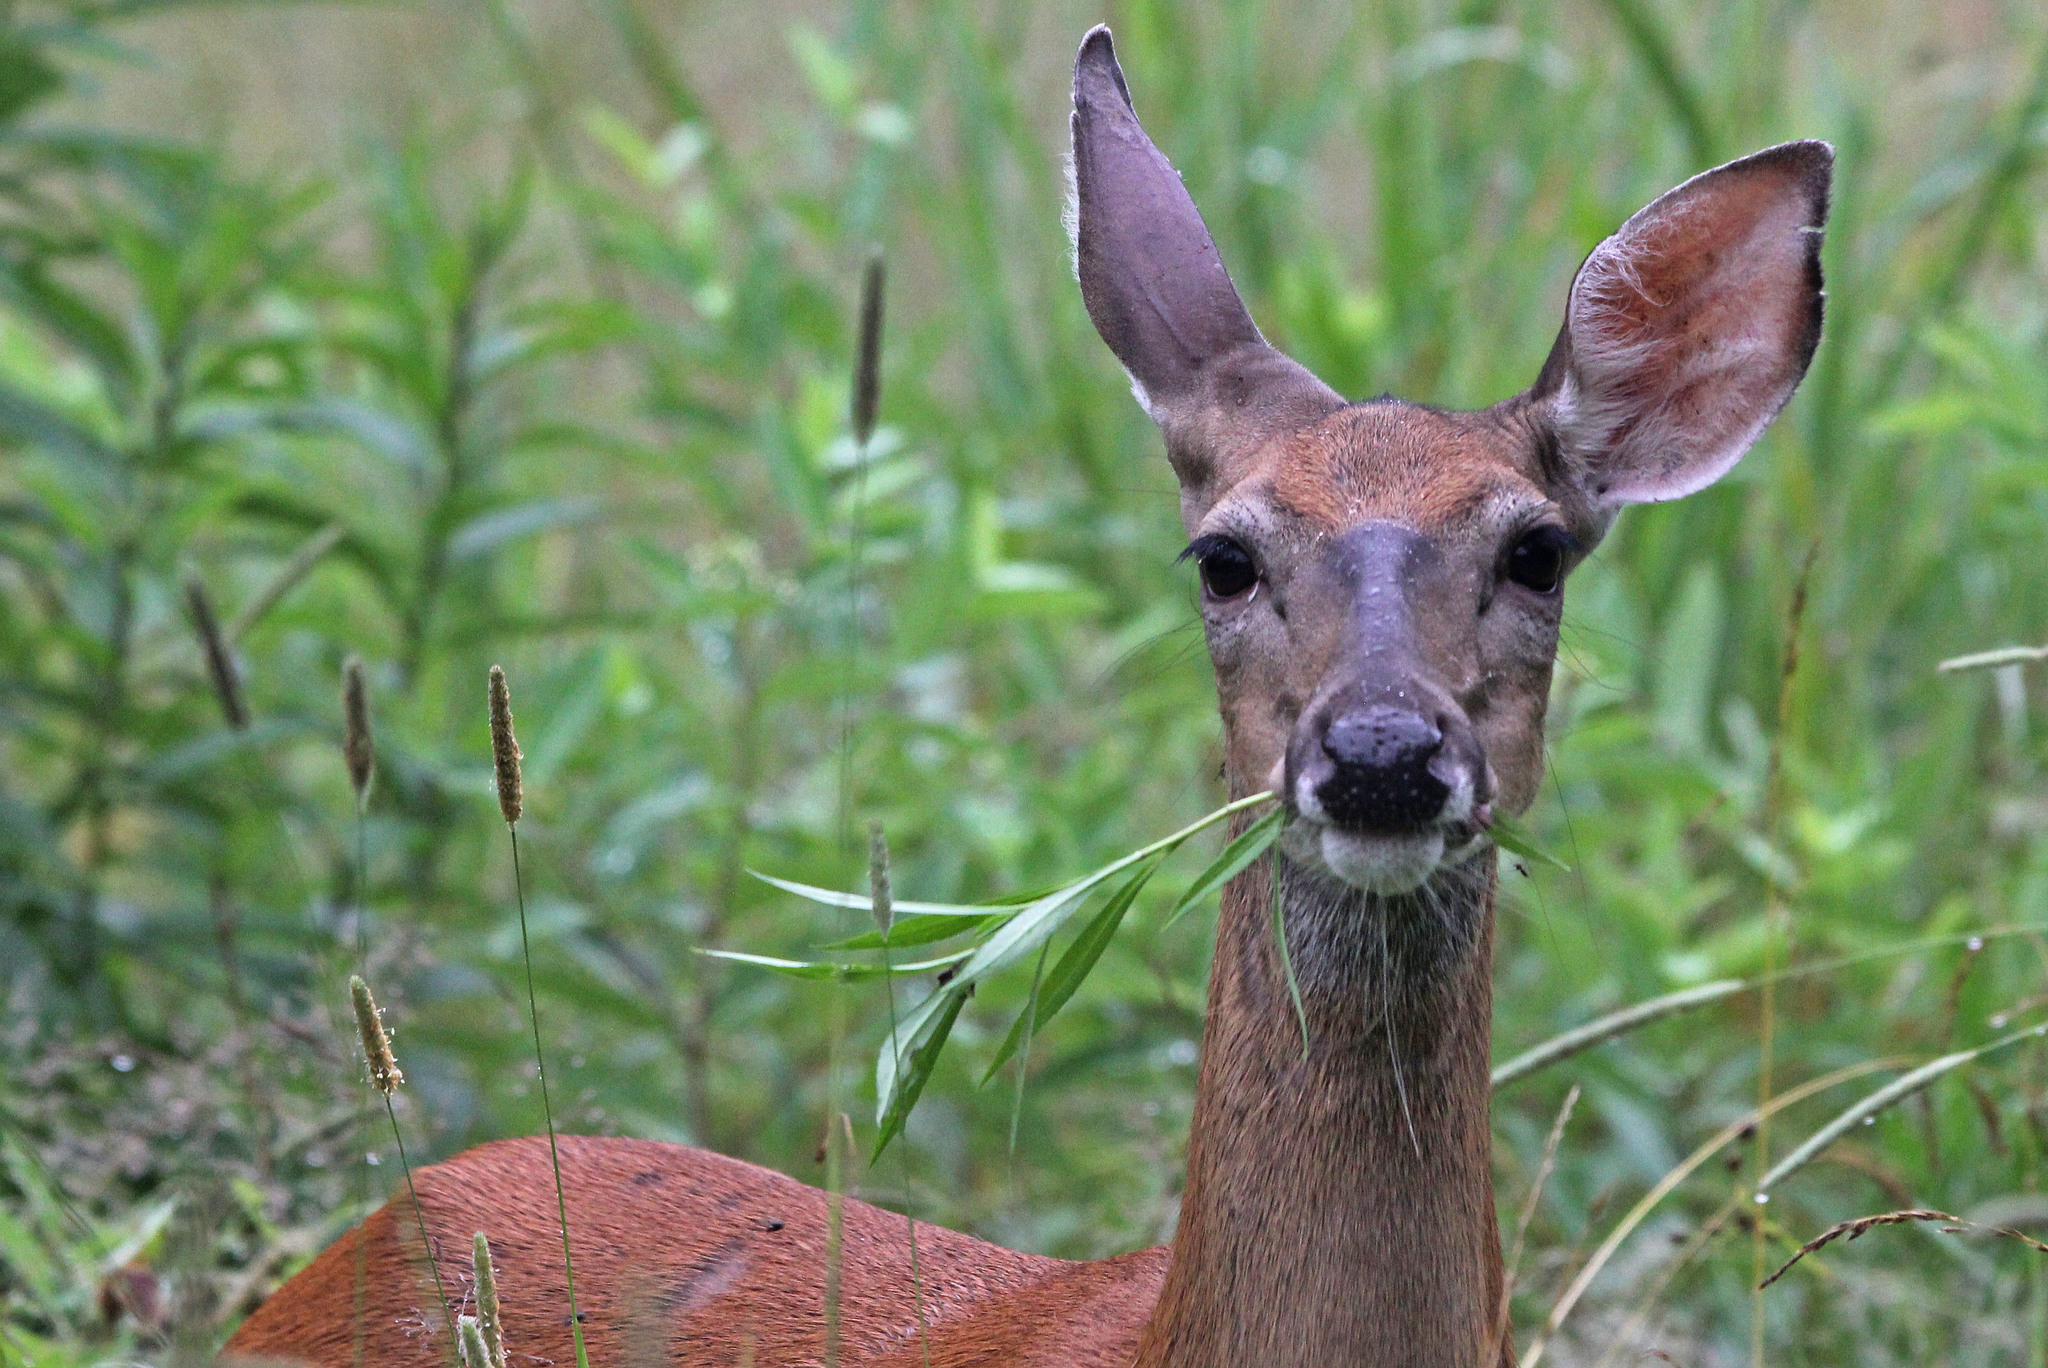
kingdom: Animalia
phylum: Chordata
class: Mammalia
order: Artiodactyla
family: Cervidae
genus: Odocoileus
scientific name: Odocoileus virginianus
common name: White-tailed deer
